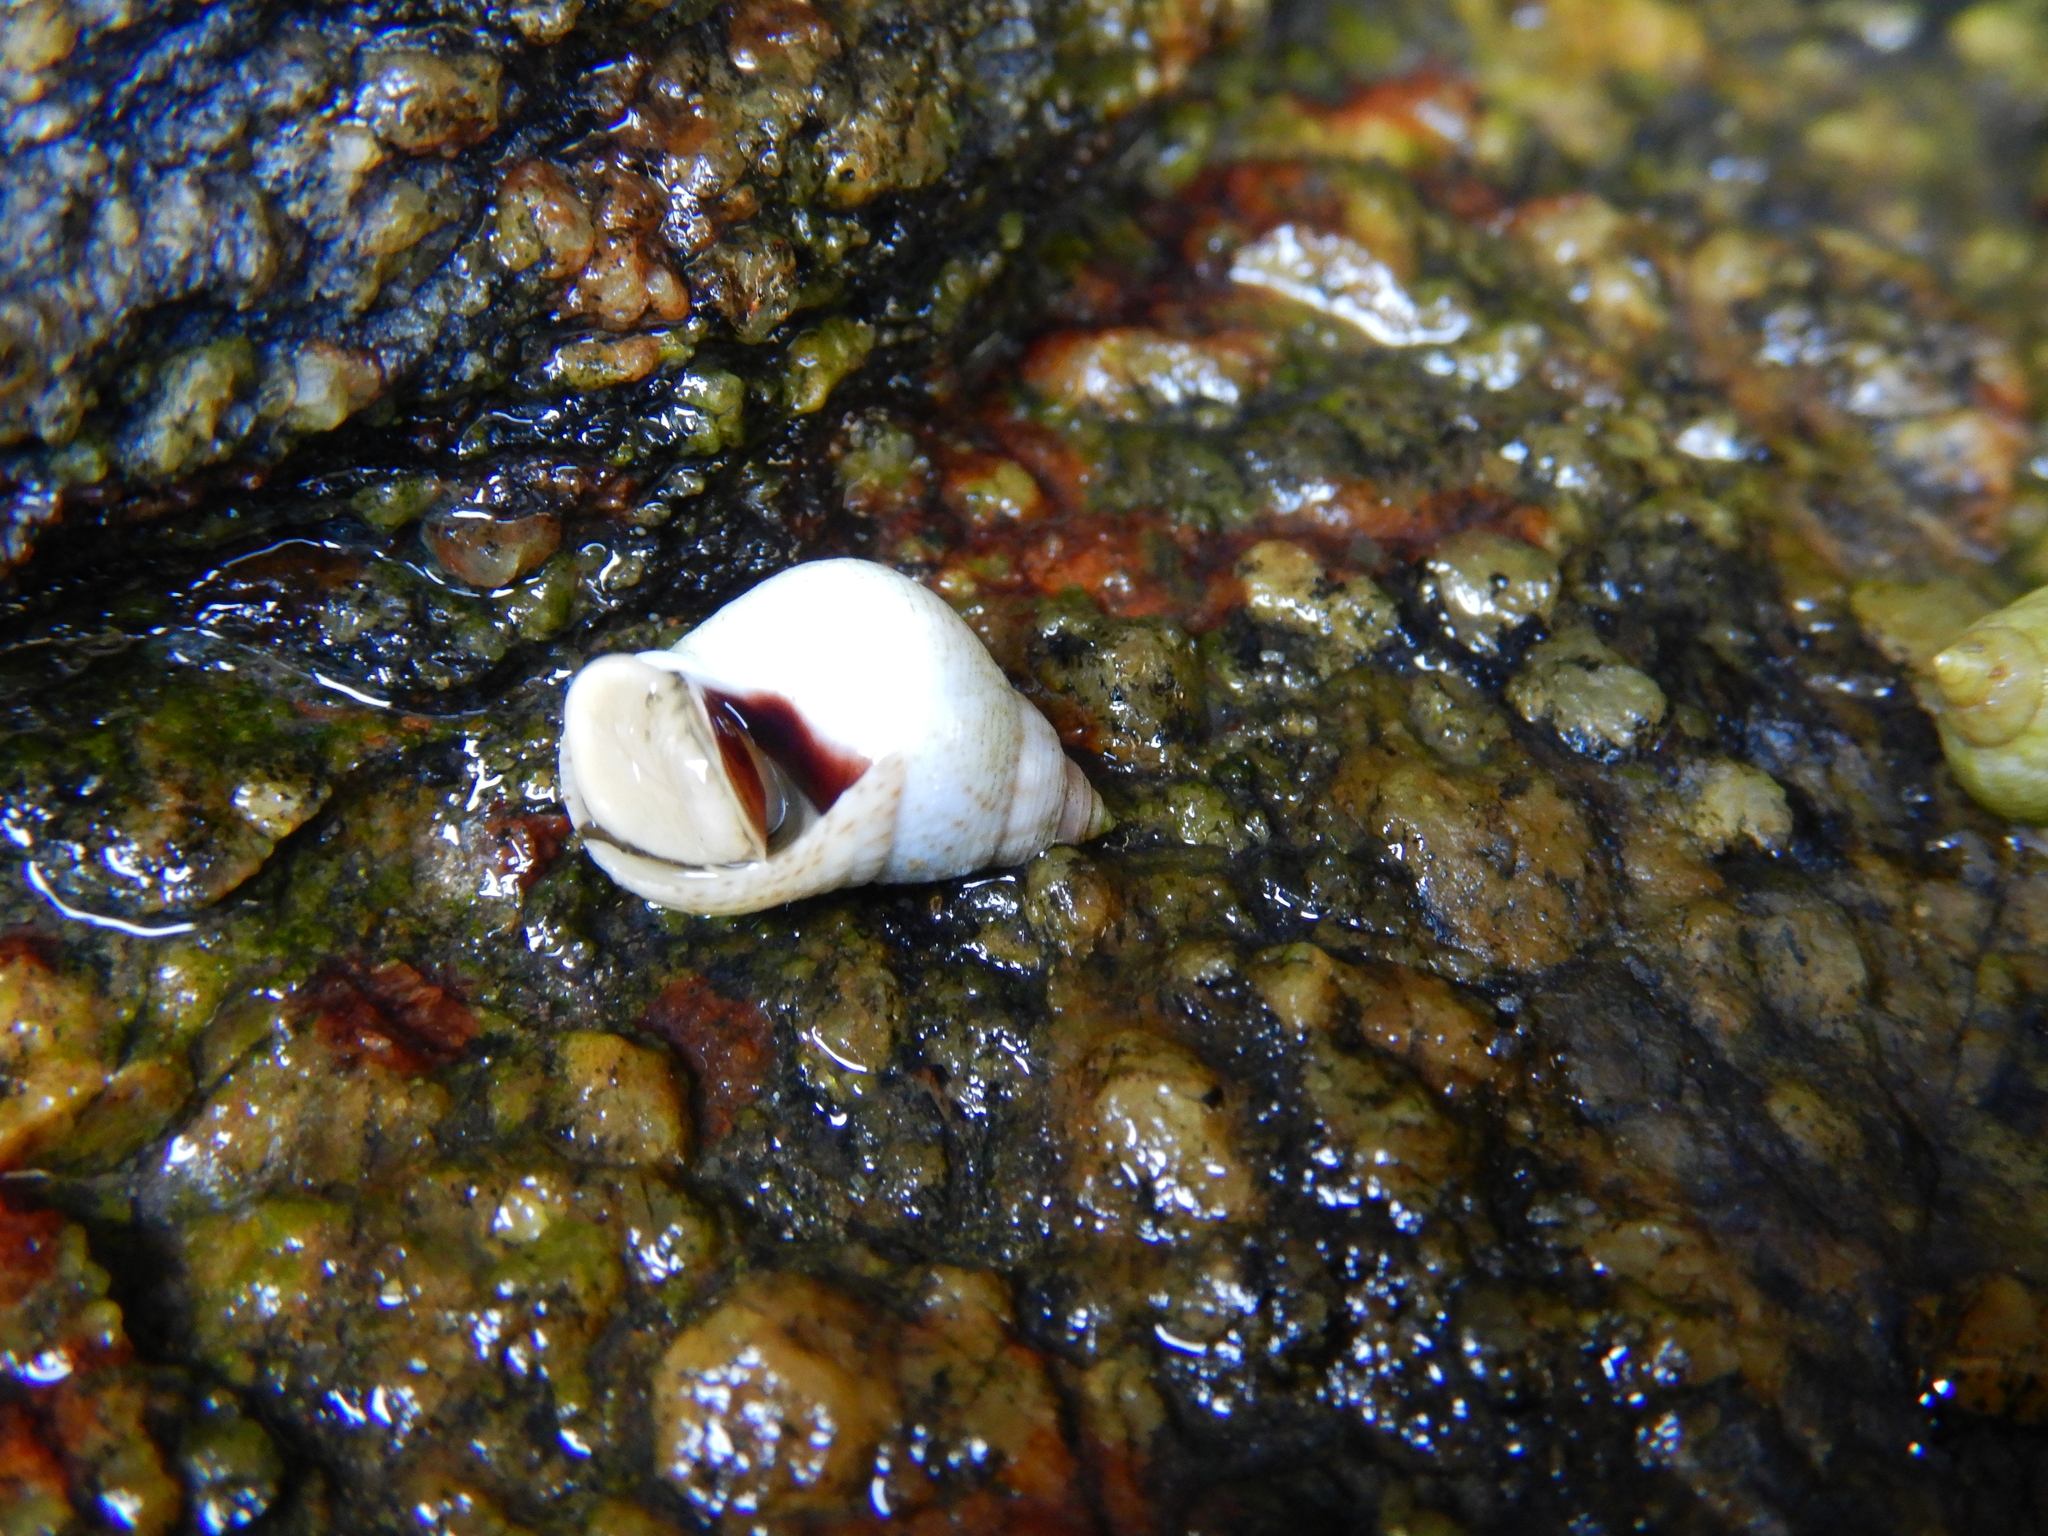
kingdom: Animalia
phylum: Mollusca
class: Gastropoda
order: Littorinimorpha
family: Littorinidae
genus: Littoraria
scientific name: Littoraria flava
